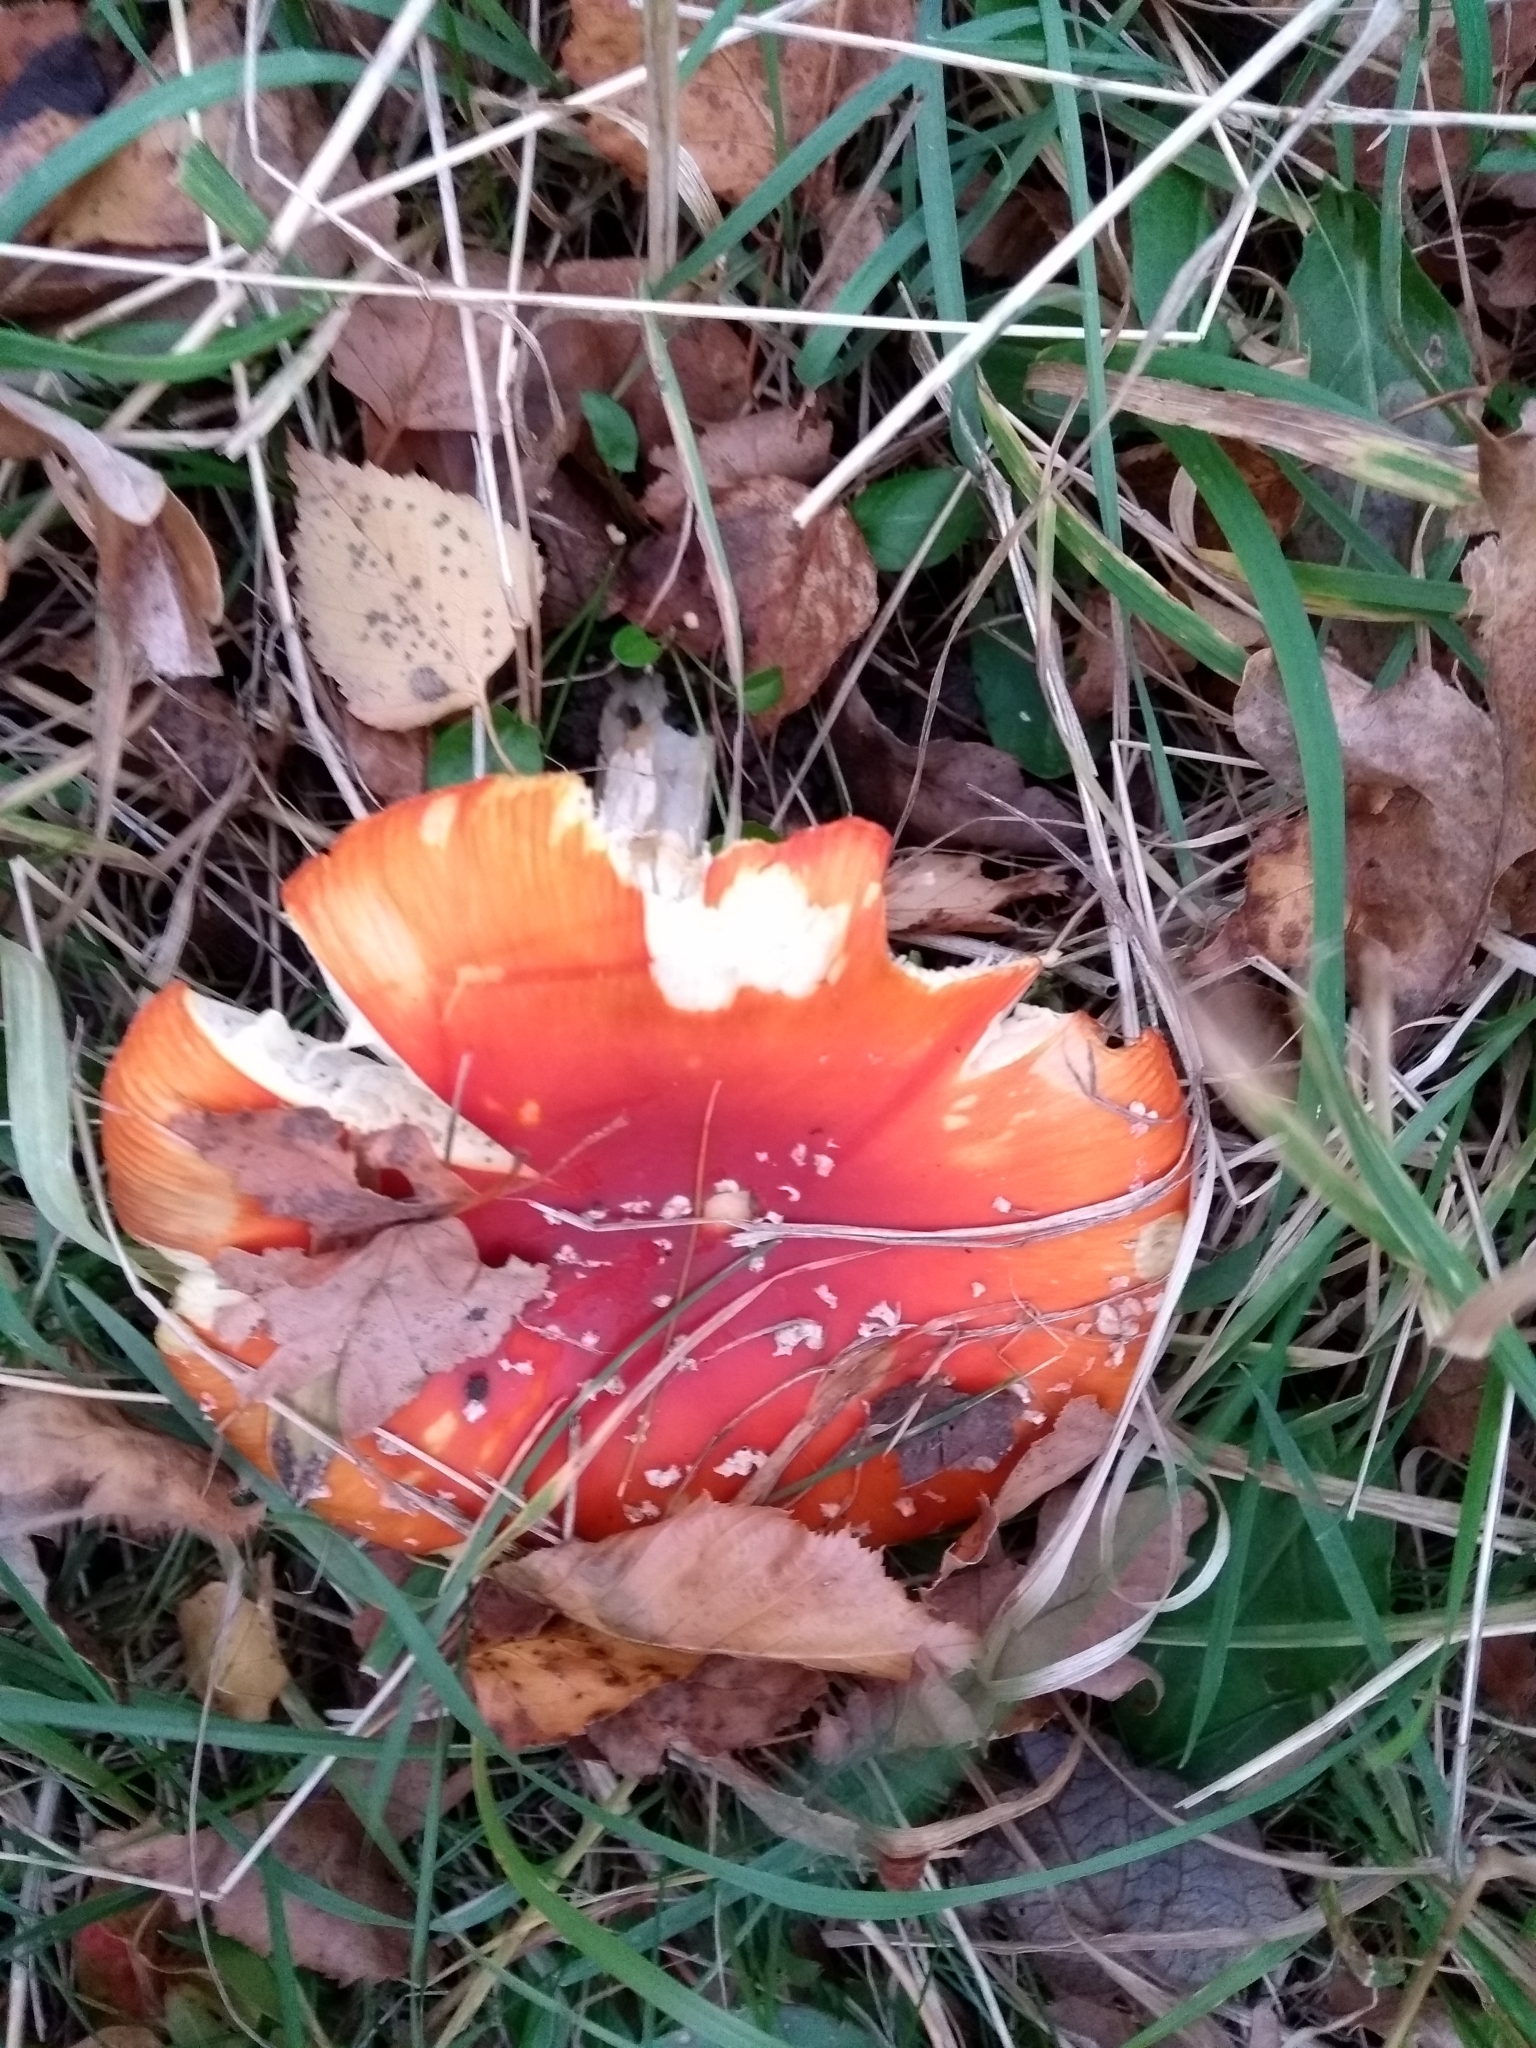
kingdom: Fungi
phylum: Basidiomycota
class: Agaricomycetes
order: Agaricales
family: Amanitaceae
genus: Amanita
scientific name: Amanita muscaria
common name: Fly agaric
